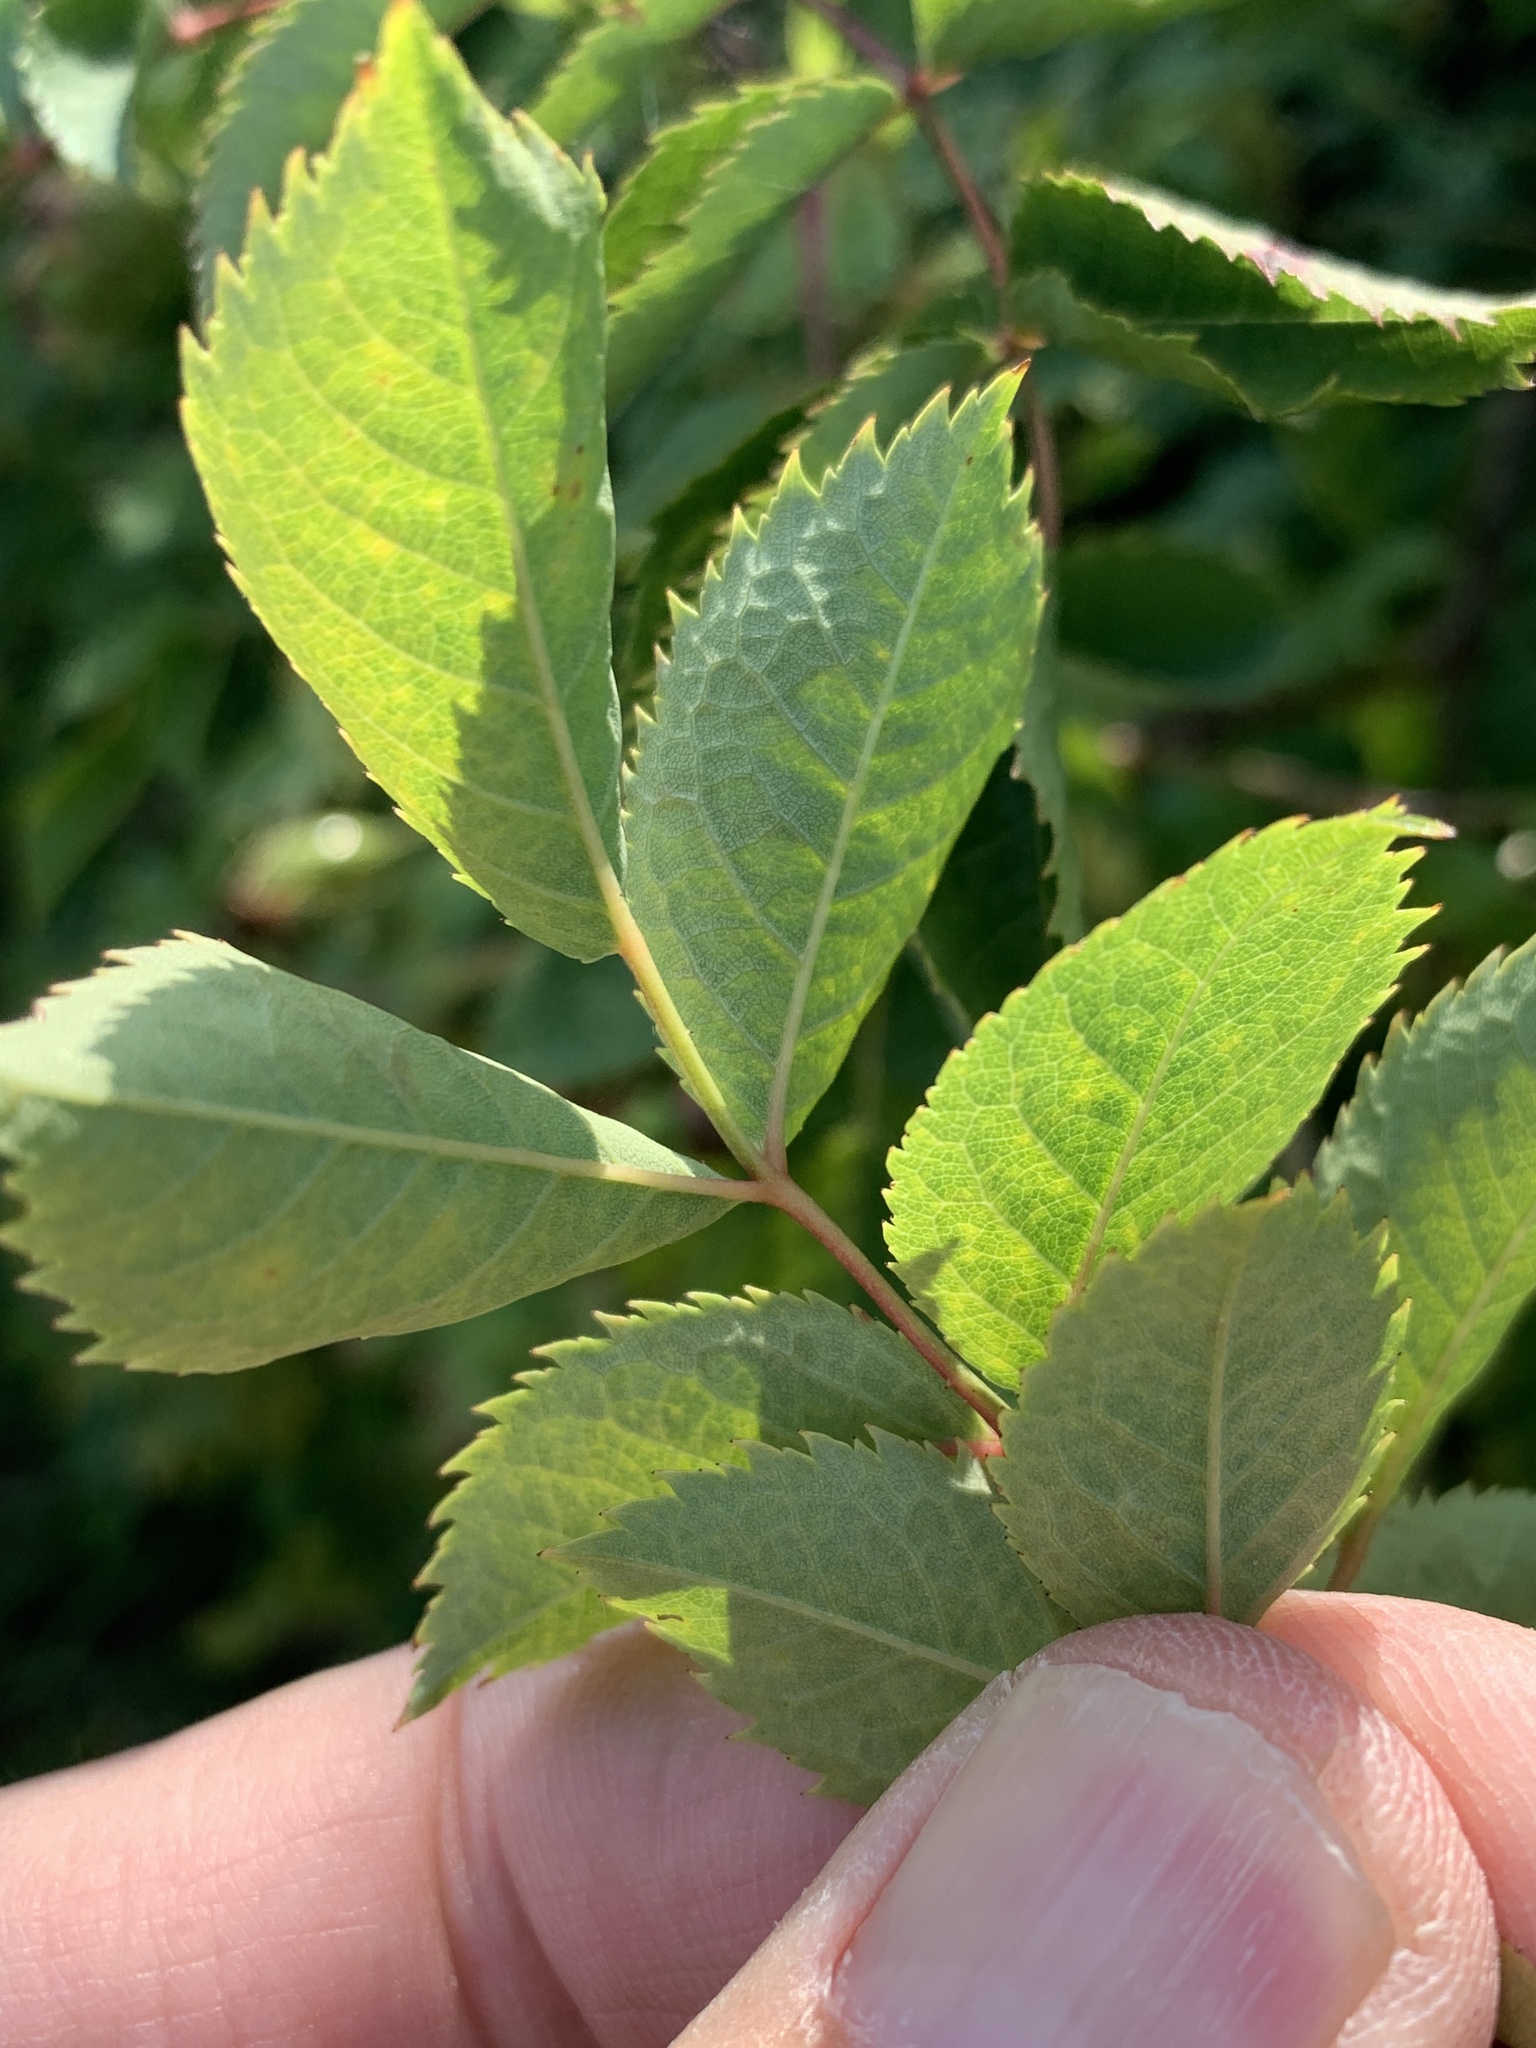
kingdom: Plantae
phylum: Tracheophyta
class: Magnoliopsida
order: Rosales
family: Rosaceae
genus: Rosa
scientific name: Rosa canina
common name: Dog rose
